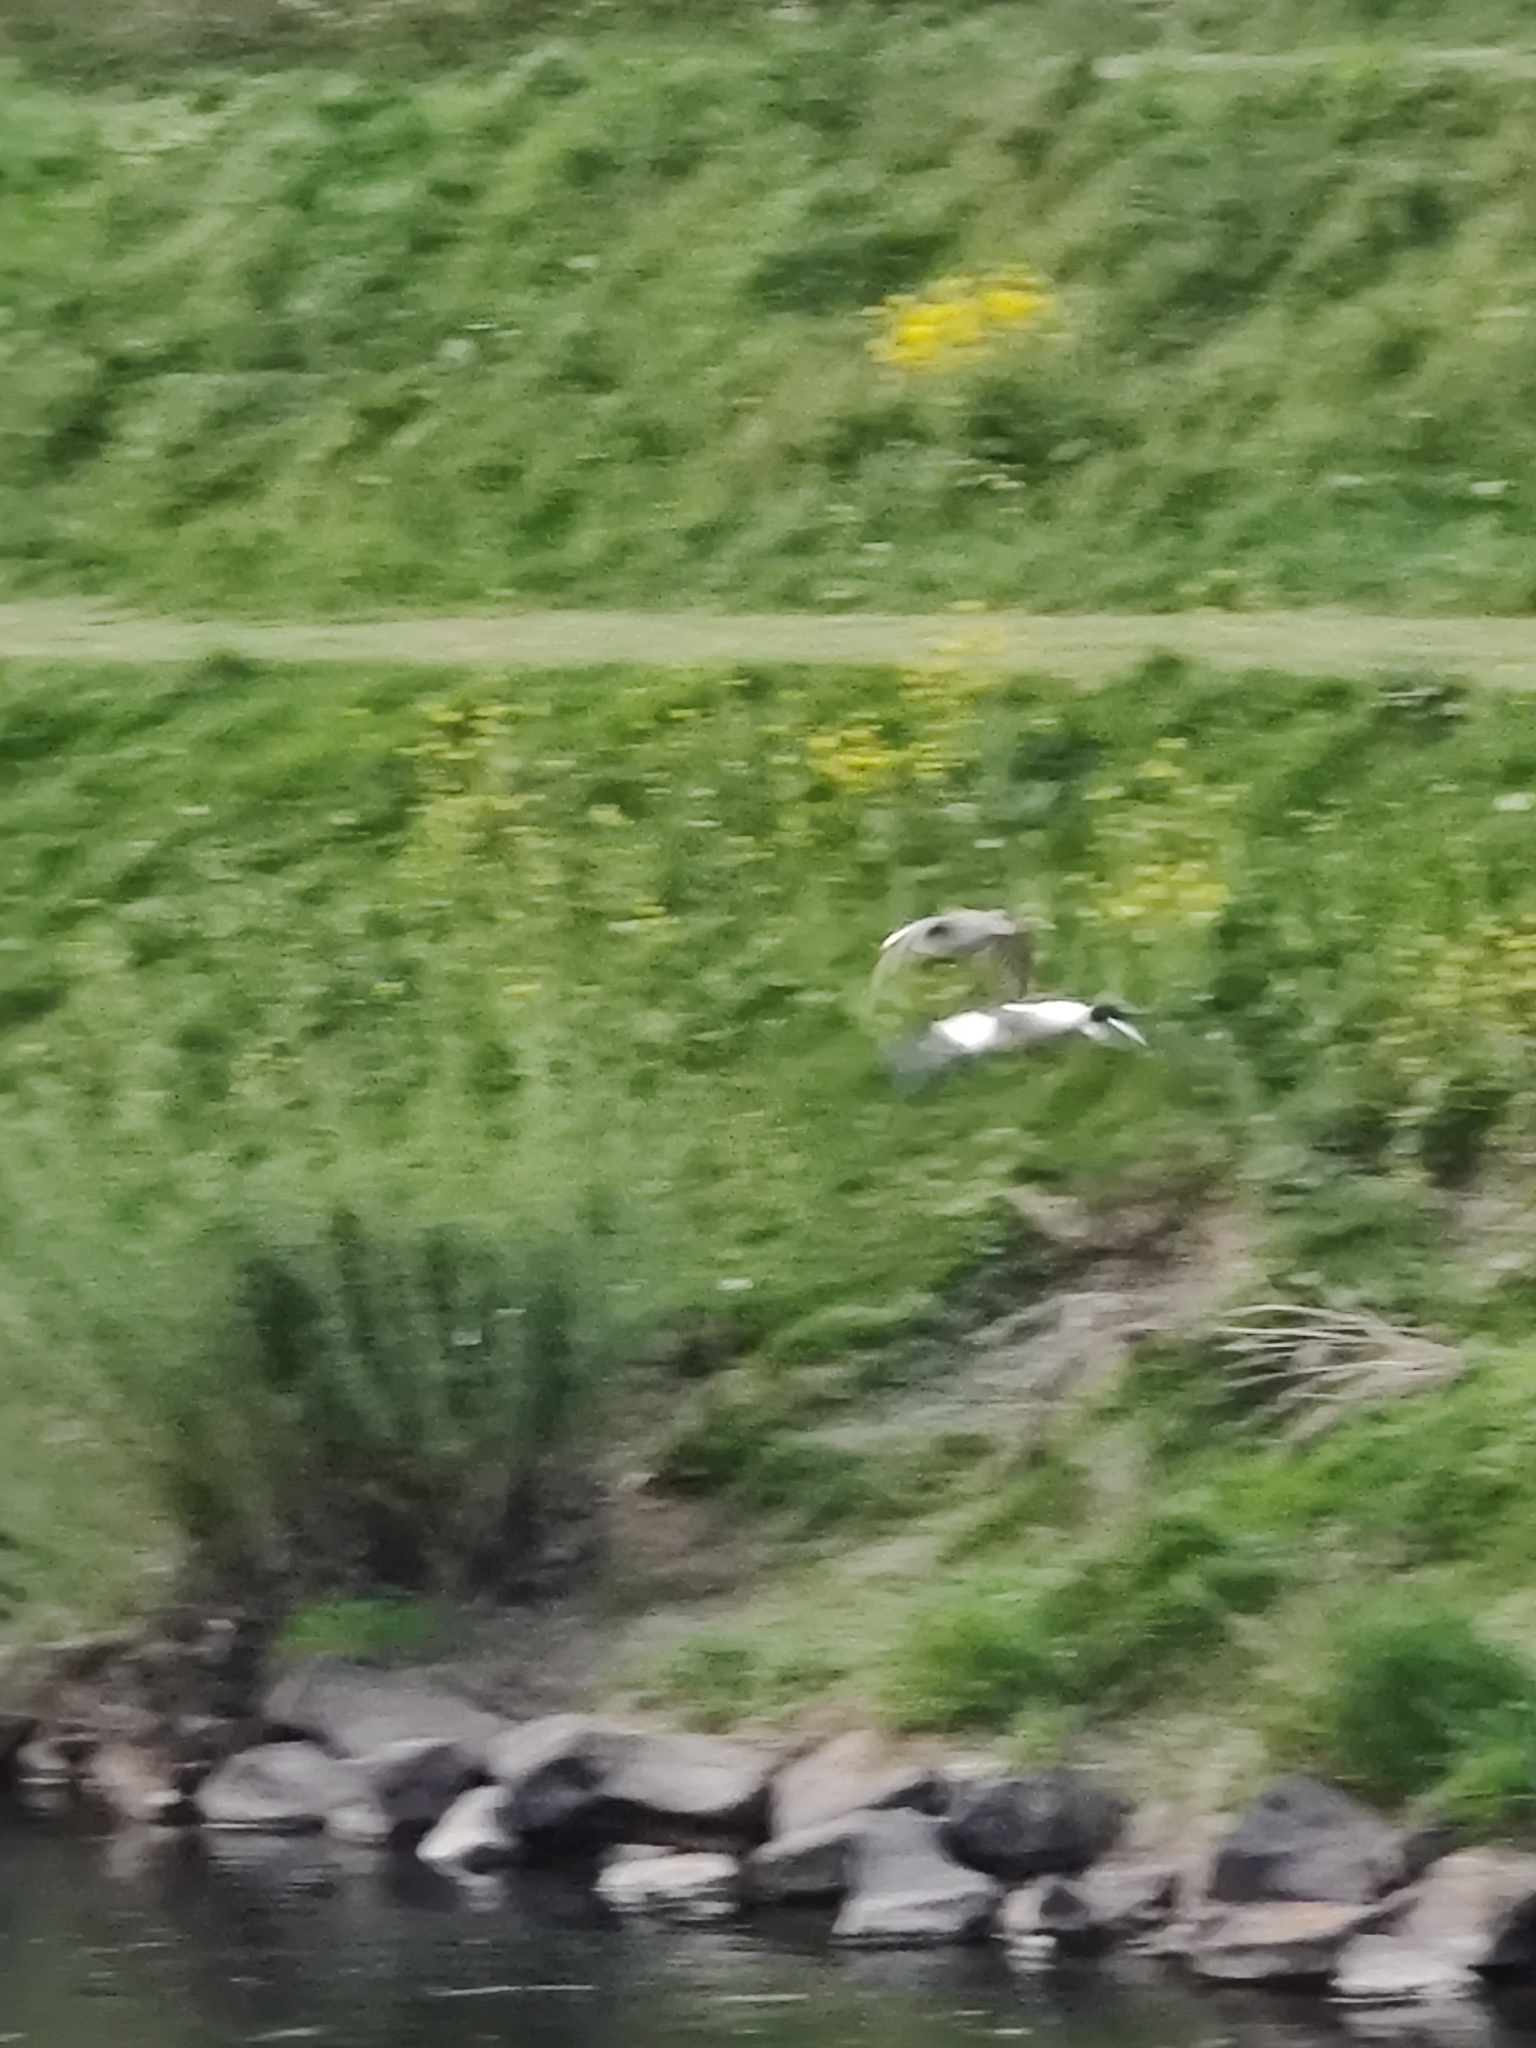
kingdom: Animalia
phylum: Chordata
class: Aves
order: Anseriformes
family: Anatidae
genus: Mergus
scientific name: Mergus merganser
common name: Common merganser
